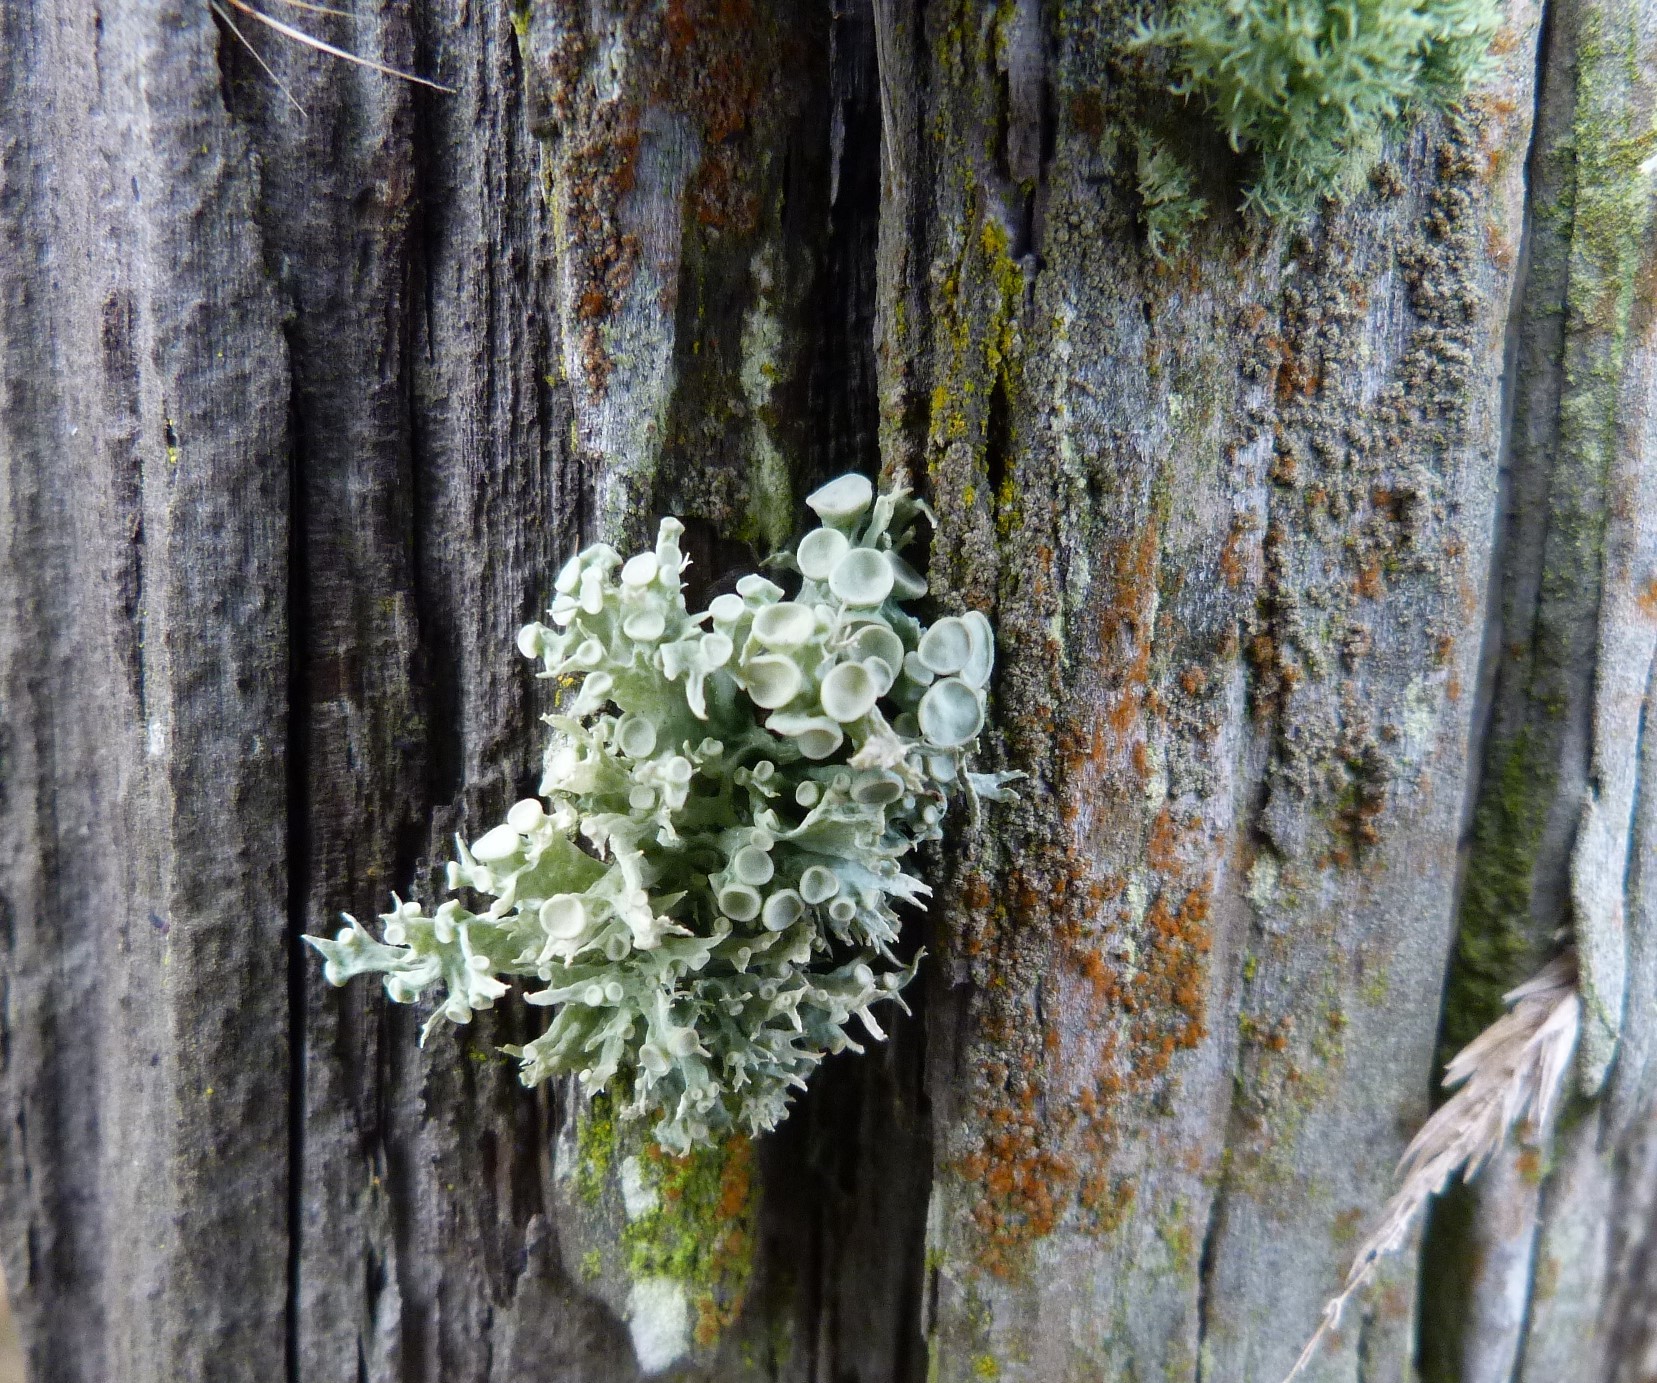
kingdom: Fungi
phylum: Ascomycota
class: Lecanoromycetes
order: Lecanorales
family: Ramalinaceae
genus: Ramalina
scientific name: Ramalina glaucescens
